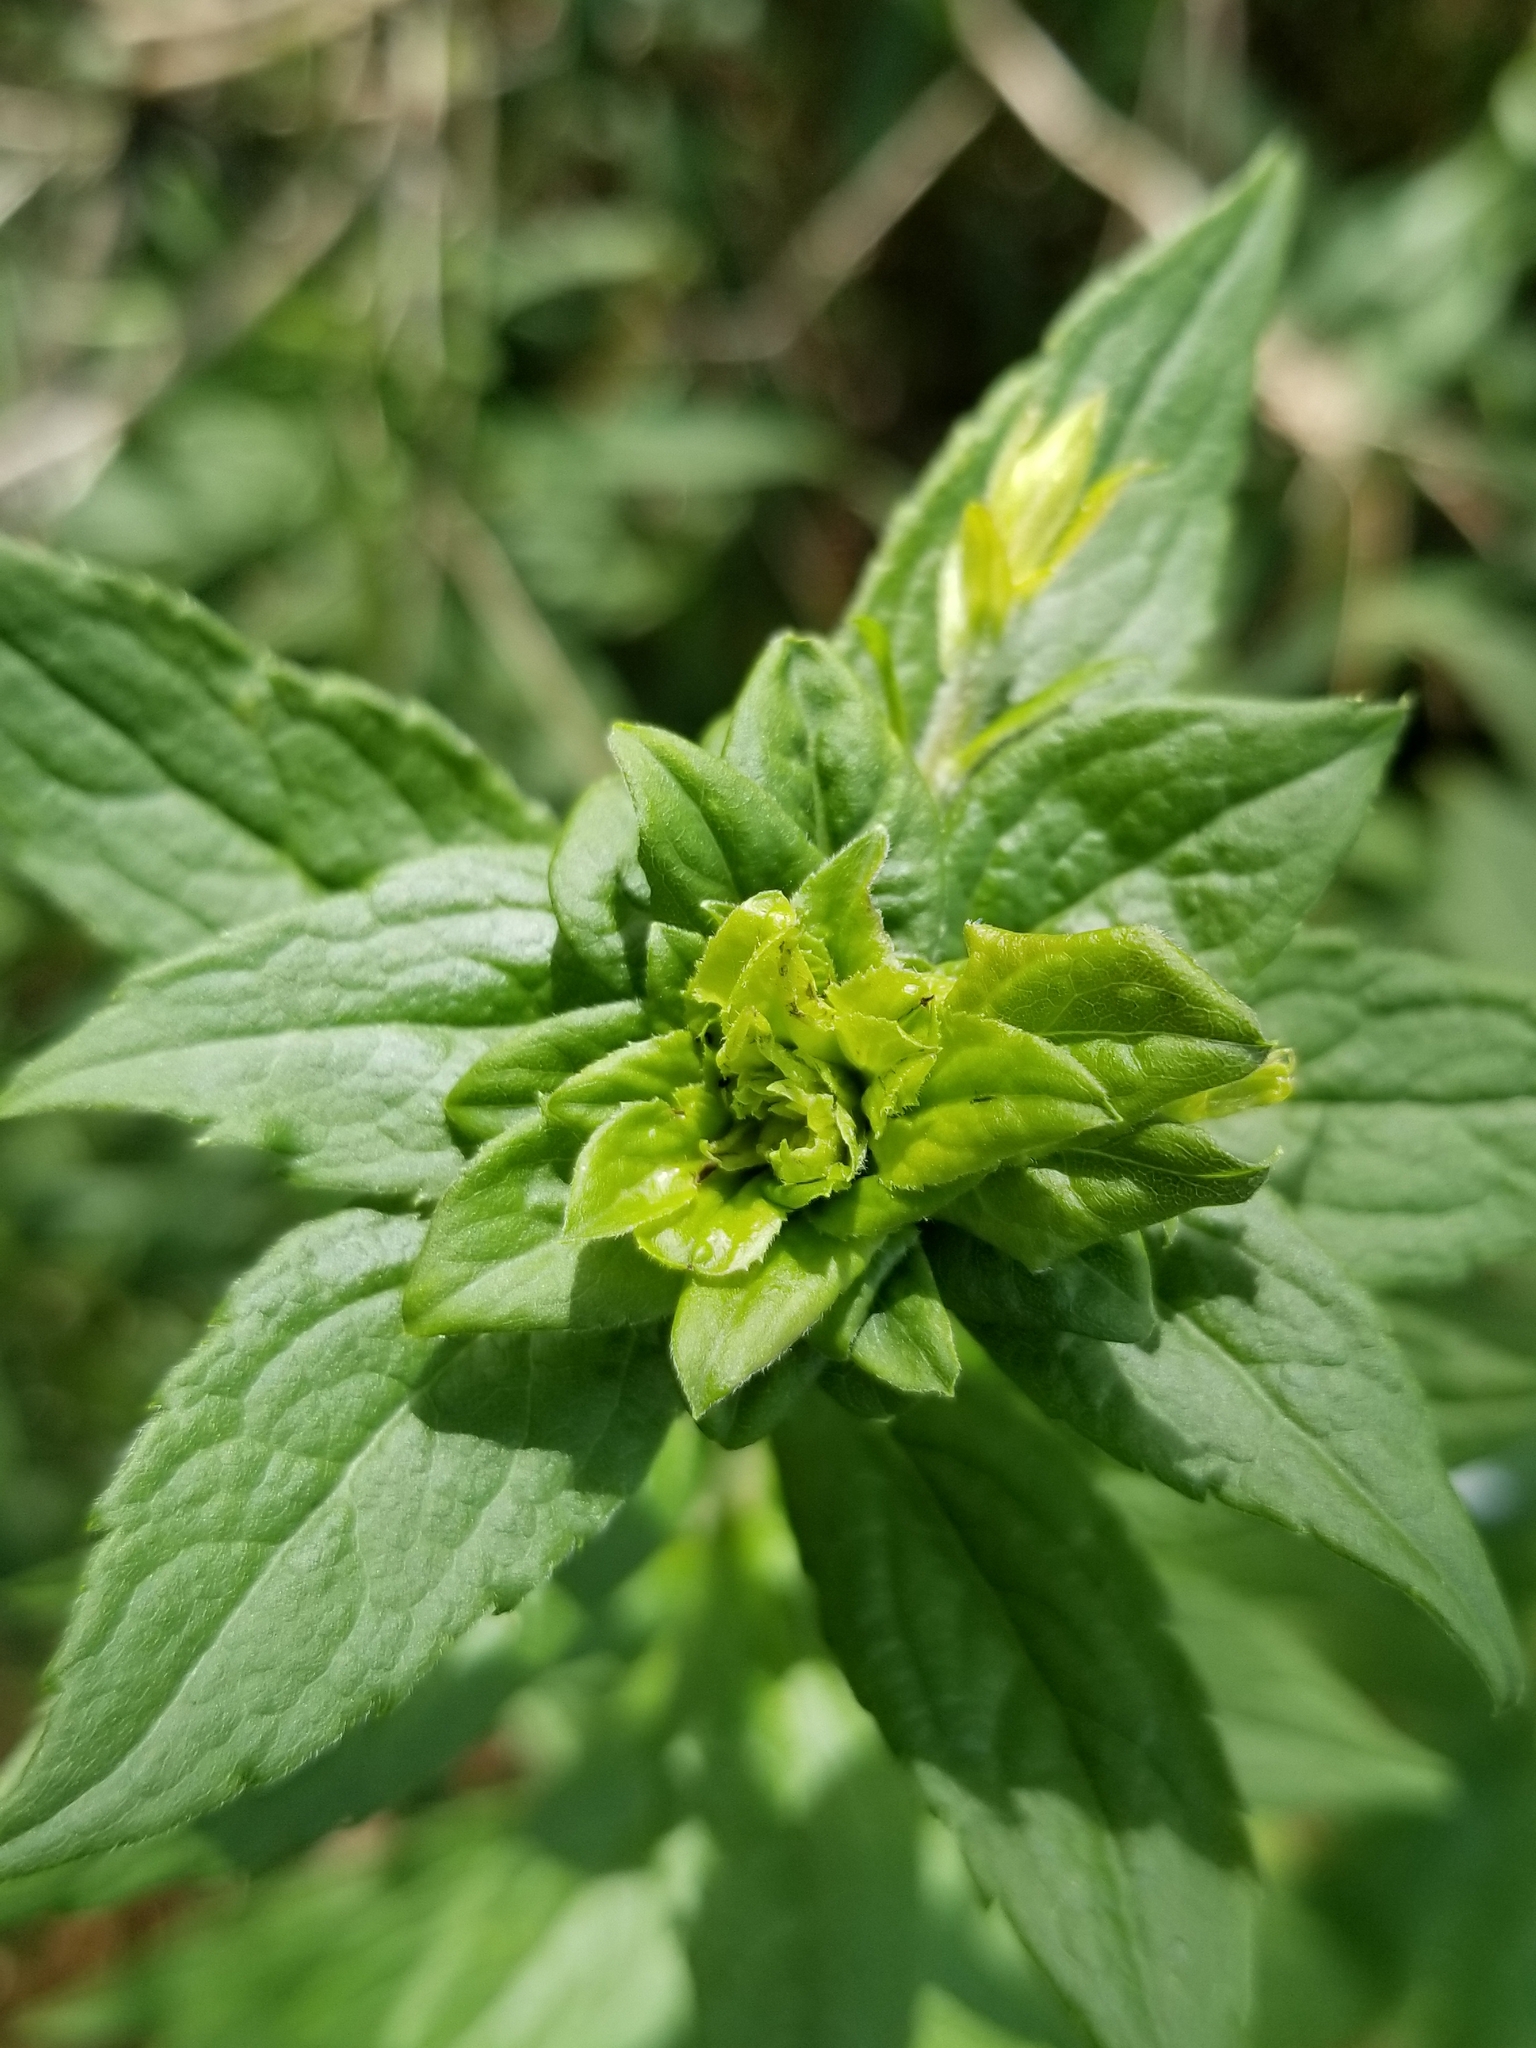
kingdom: Plantae
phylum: Tracheophyta
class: Magnoliopsida
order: Asterales
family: Asteraceae
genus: Solidago
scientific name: Solidago rugosa
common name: Rough-stemmed goldenrod
